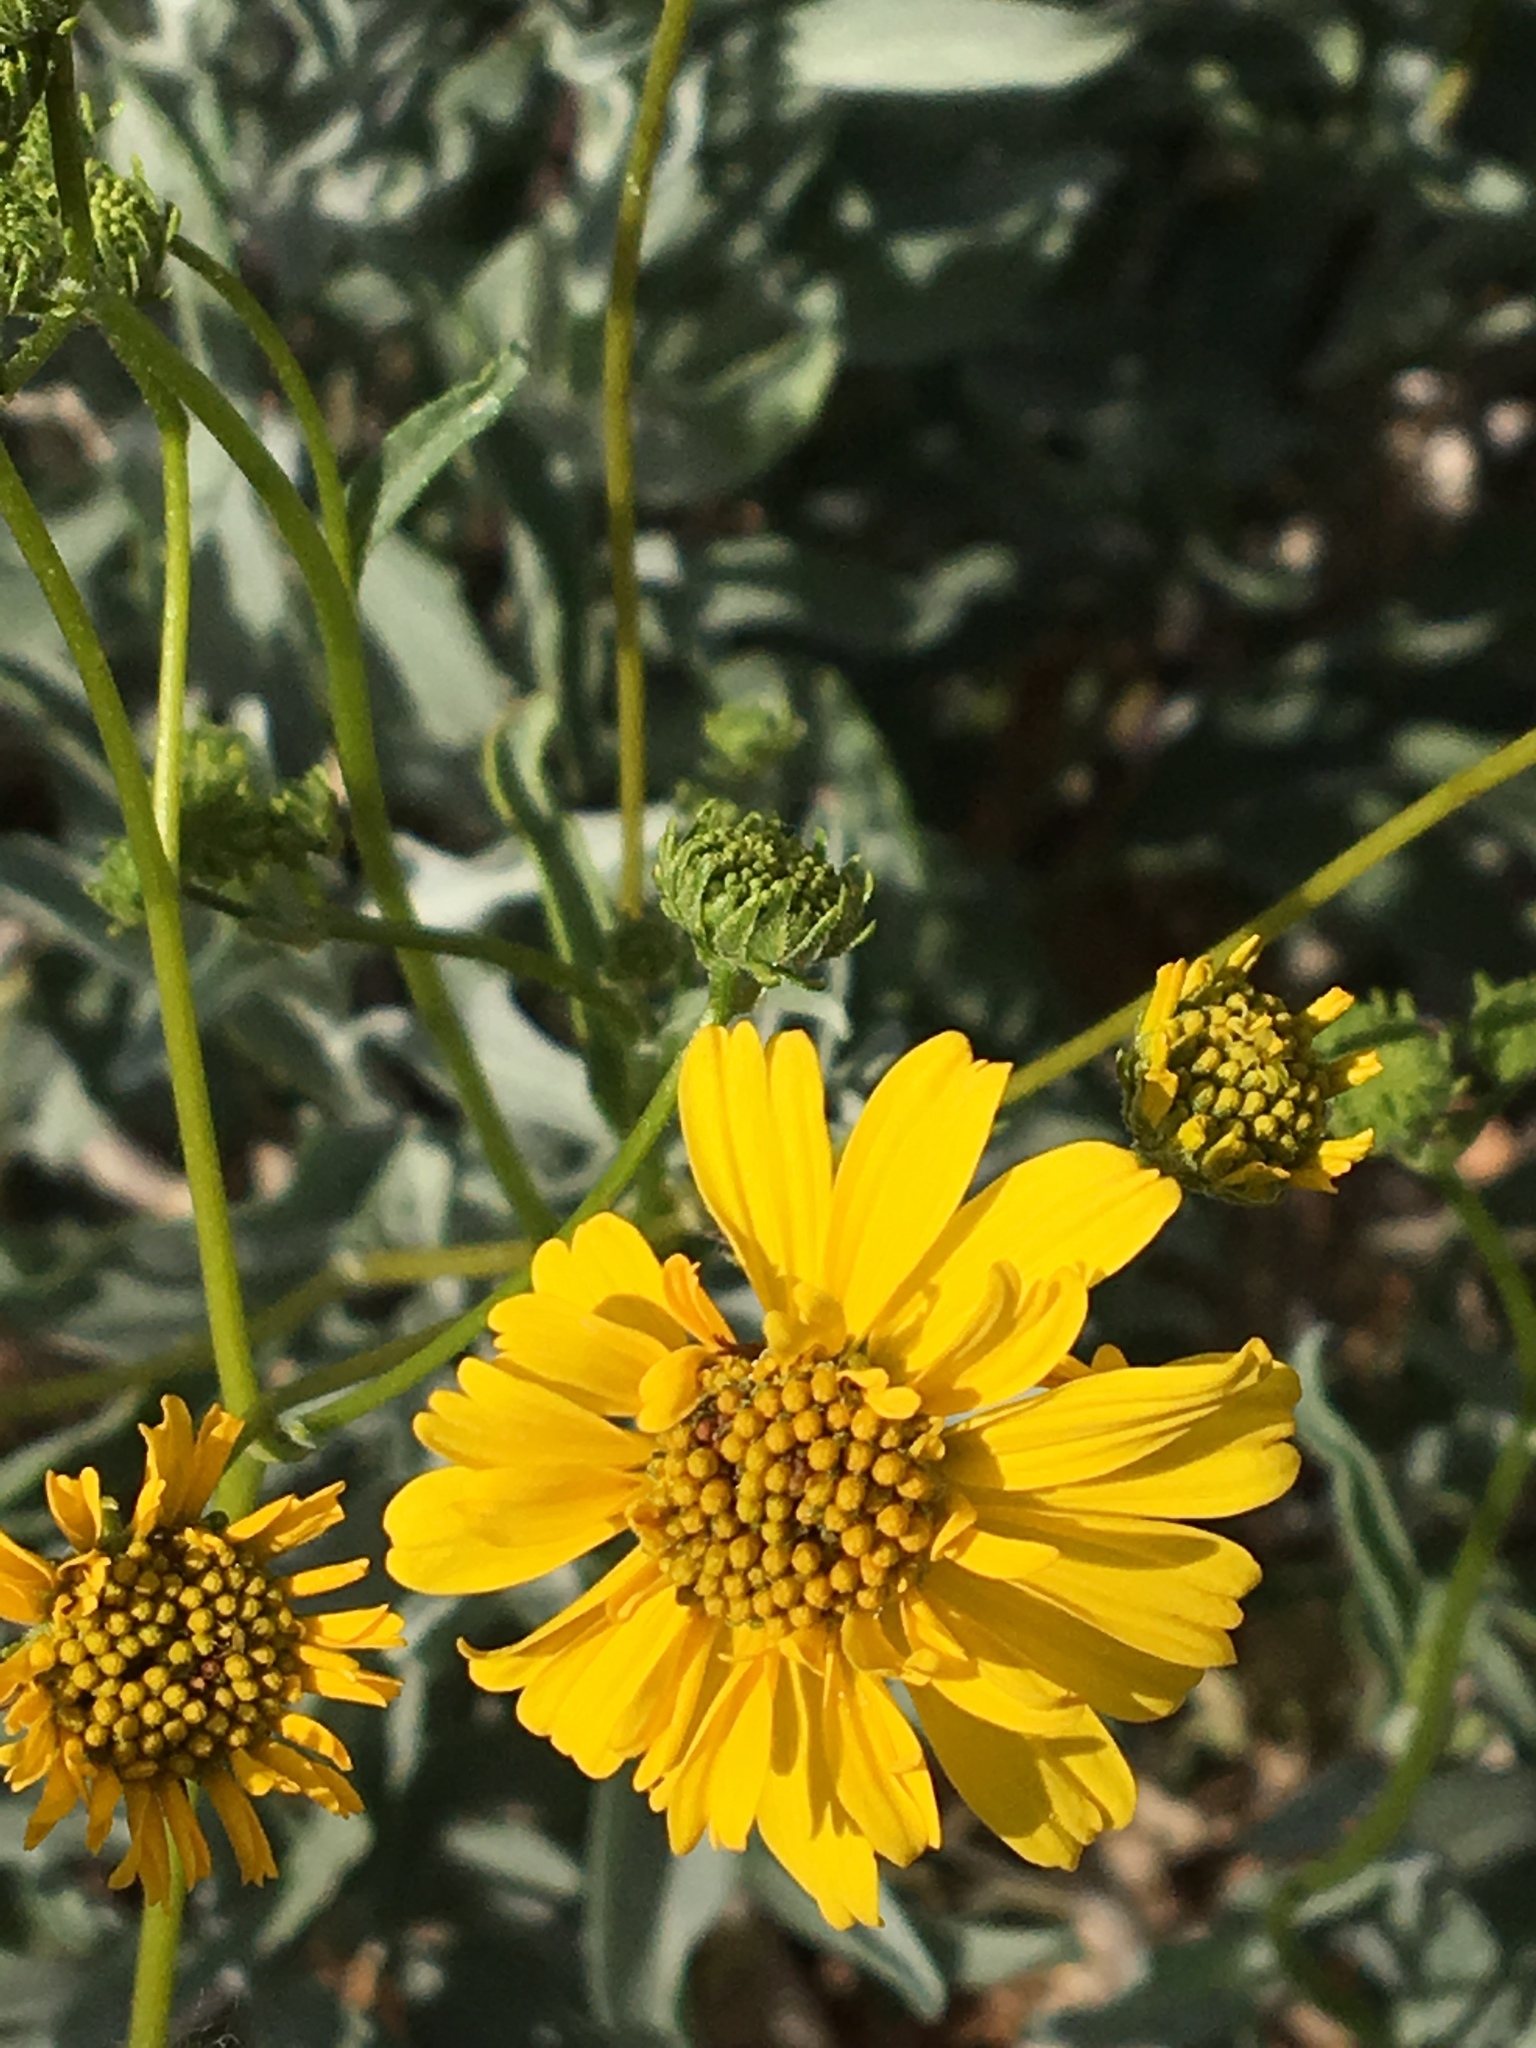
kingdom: Plantae
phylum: Tracheophyta
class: Magnoliopsida
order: Asterales
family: Asteraceae
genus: Encelia
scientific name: Encelia farinosa
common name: Brittlebush
